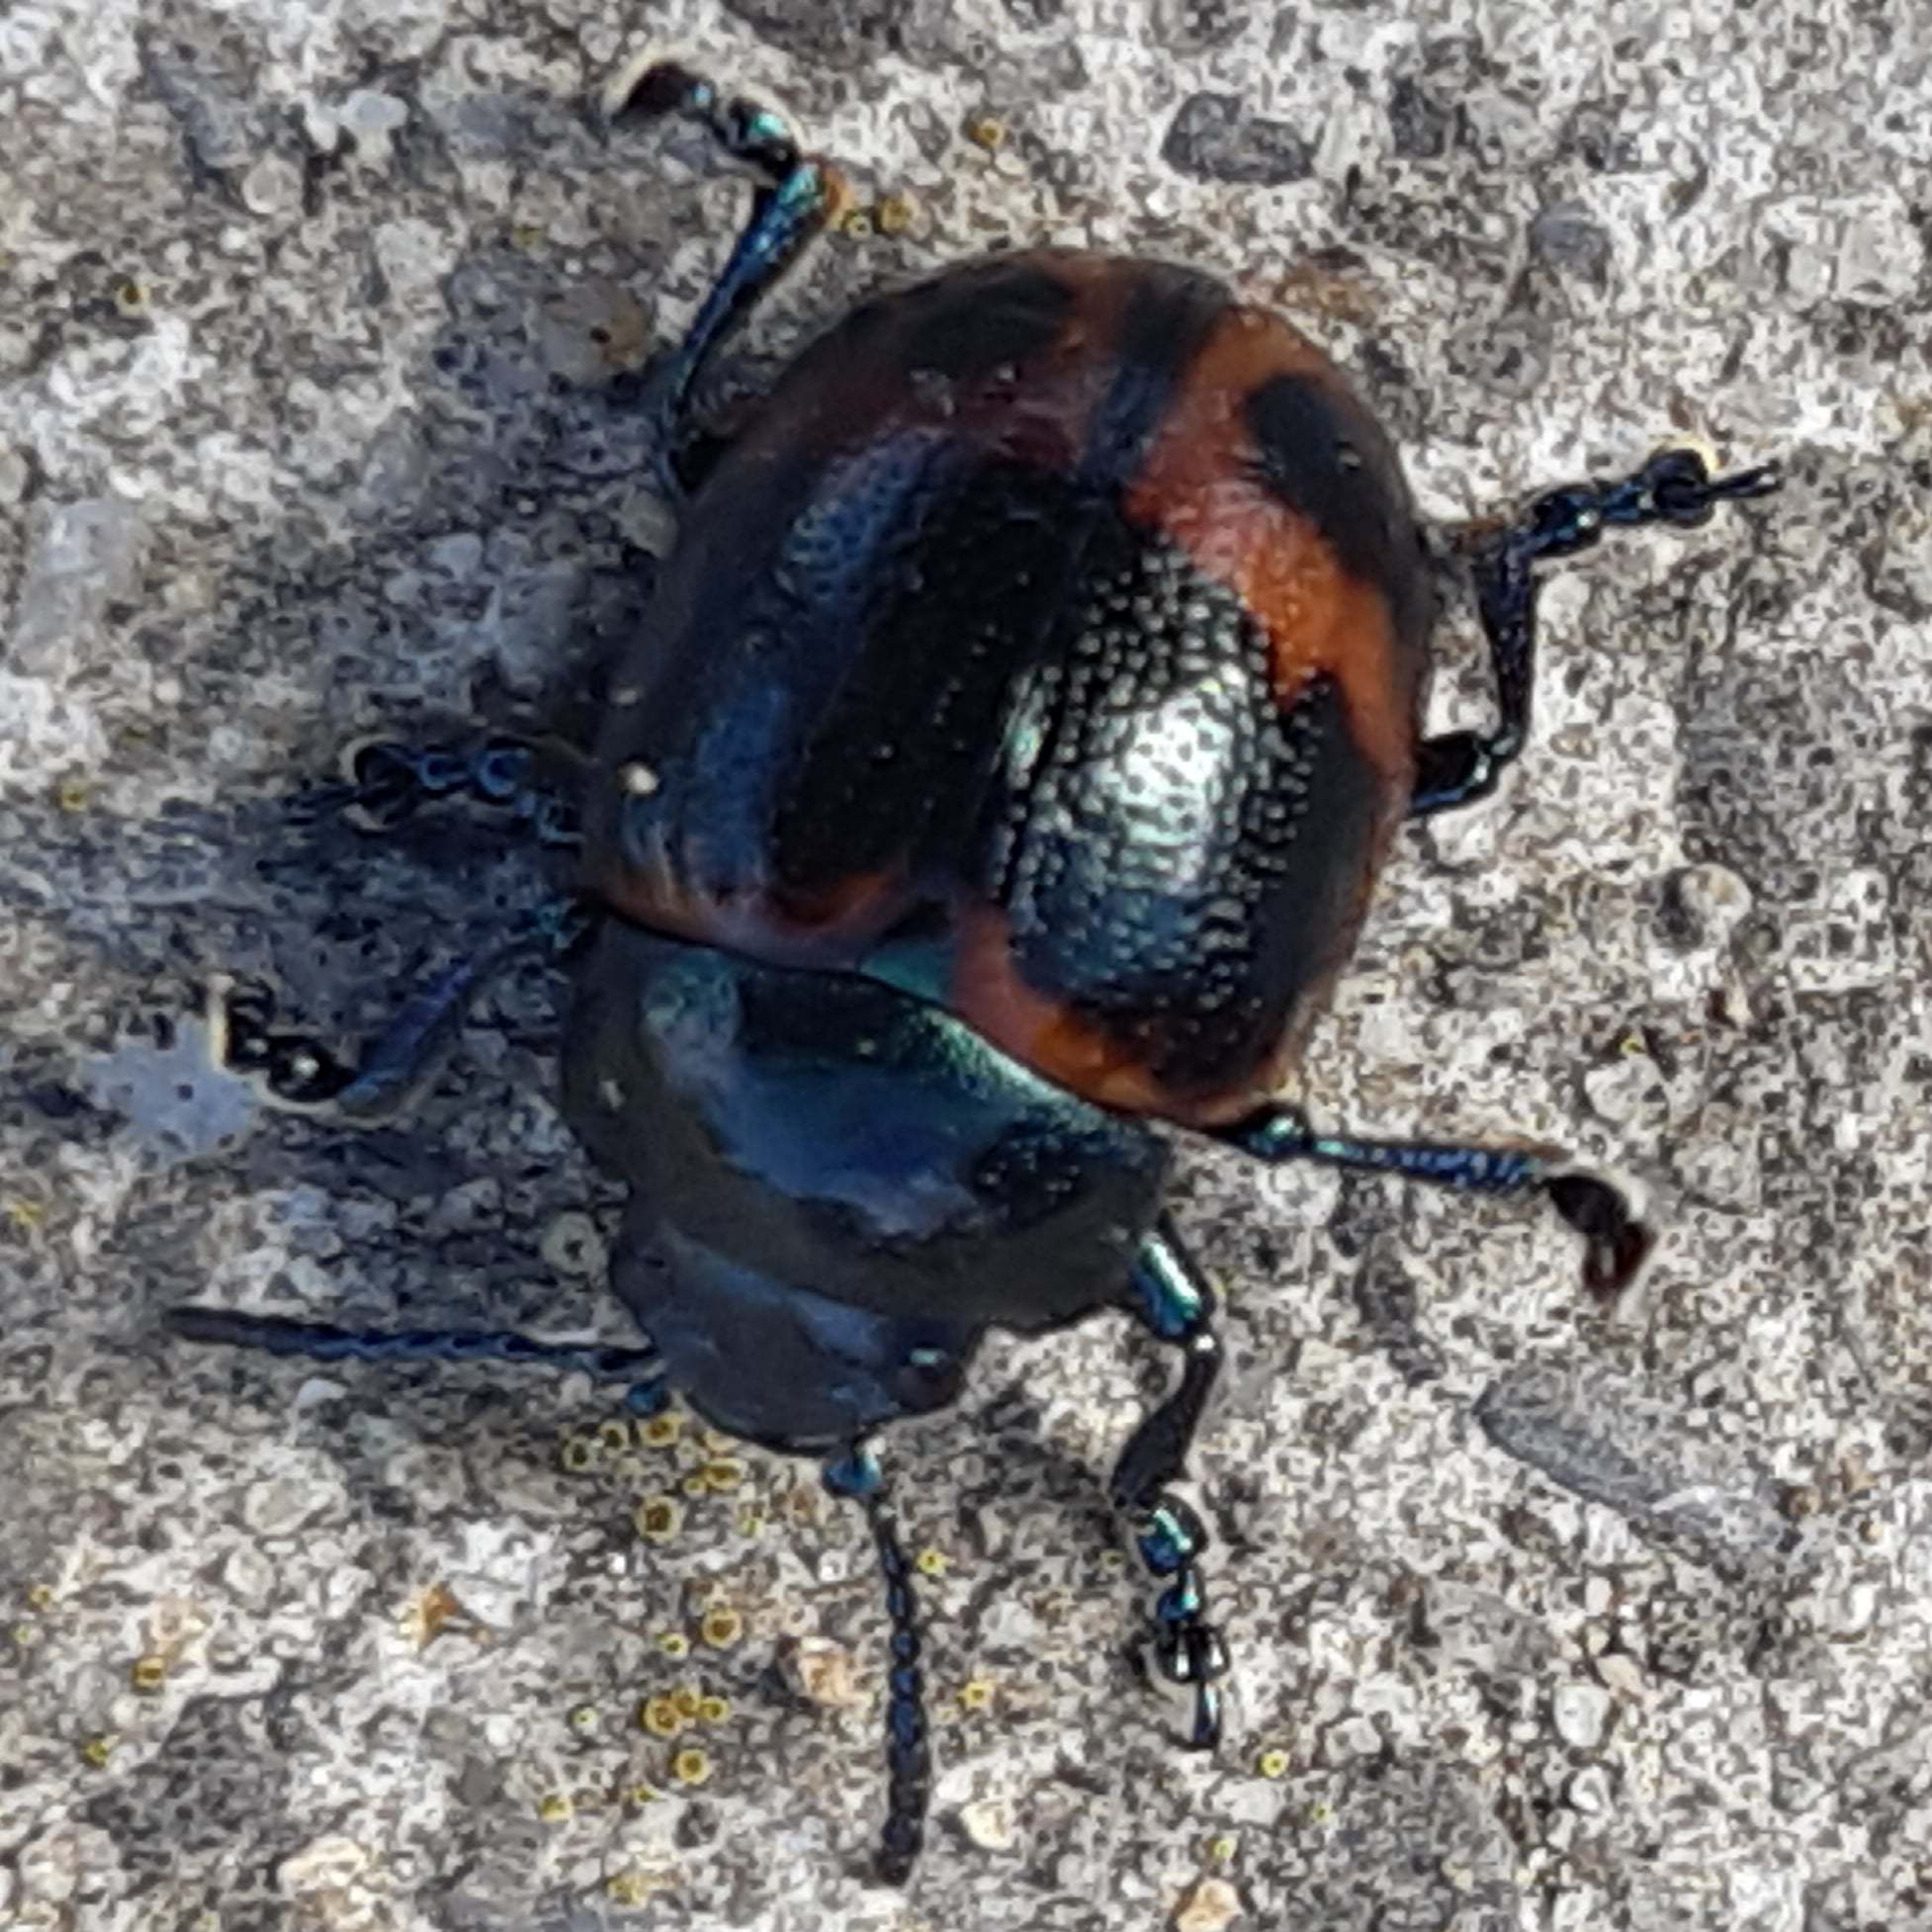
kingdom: Animalia
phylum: Arthropoda
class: Insecta
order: Coleoptera
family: Chrysomelidae
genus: Labidomera
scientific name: Labidomera clivicollis
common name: Swamp milkweed leaf beetle
